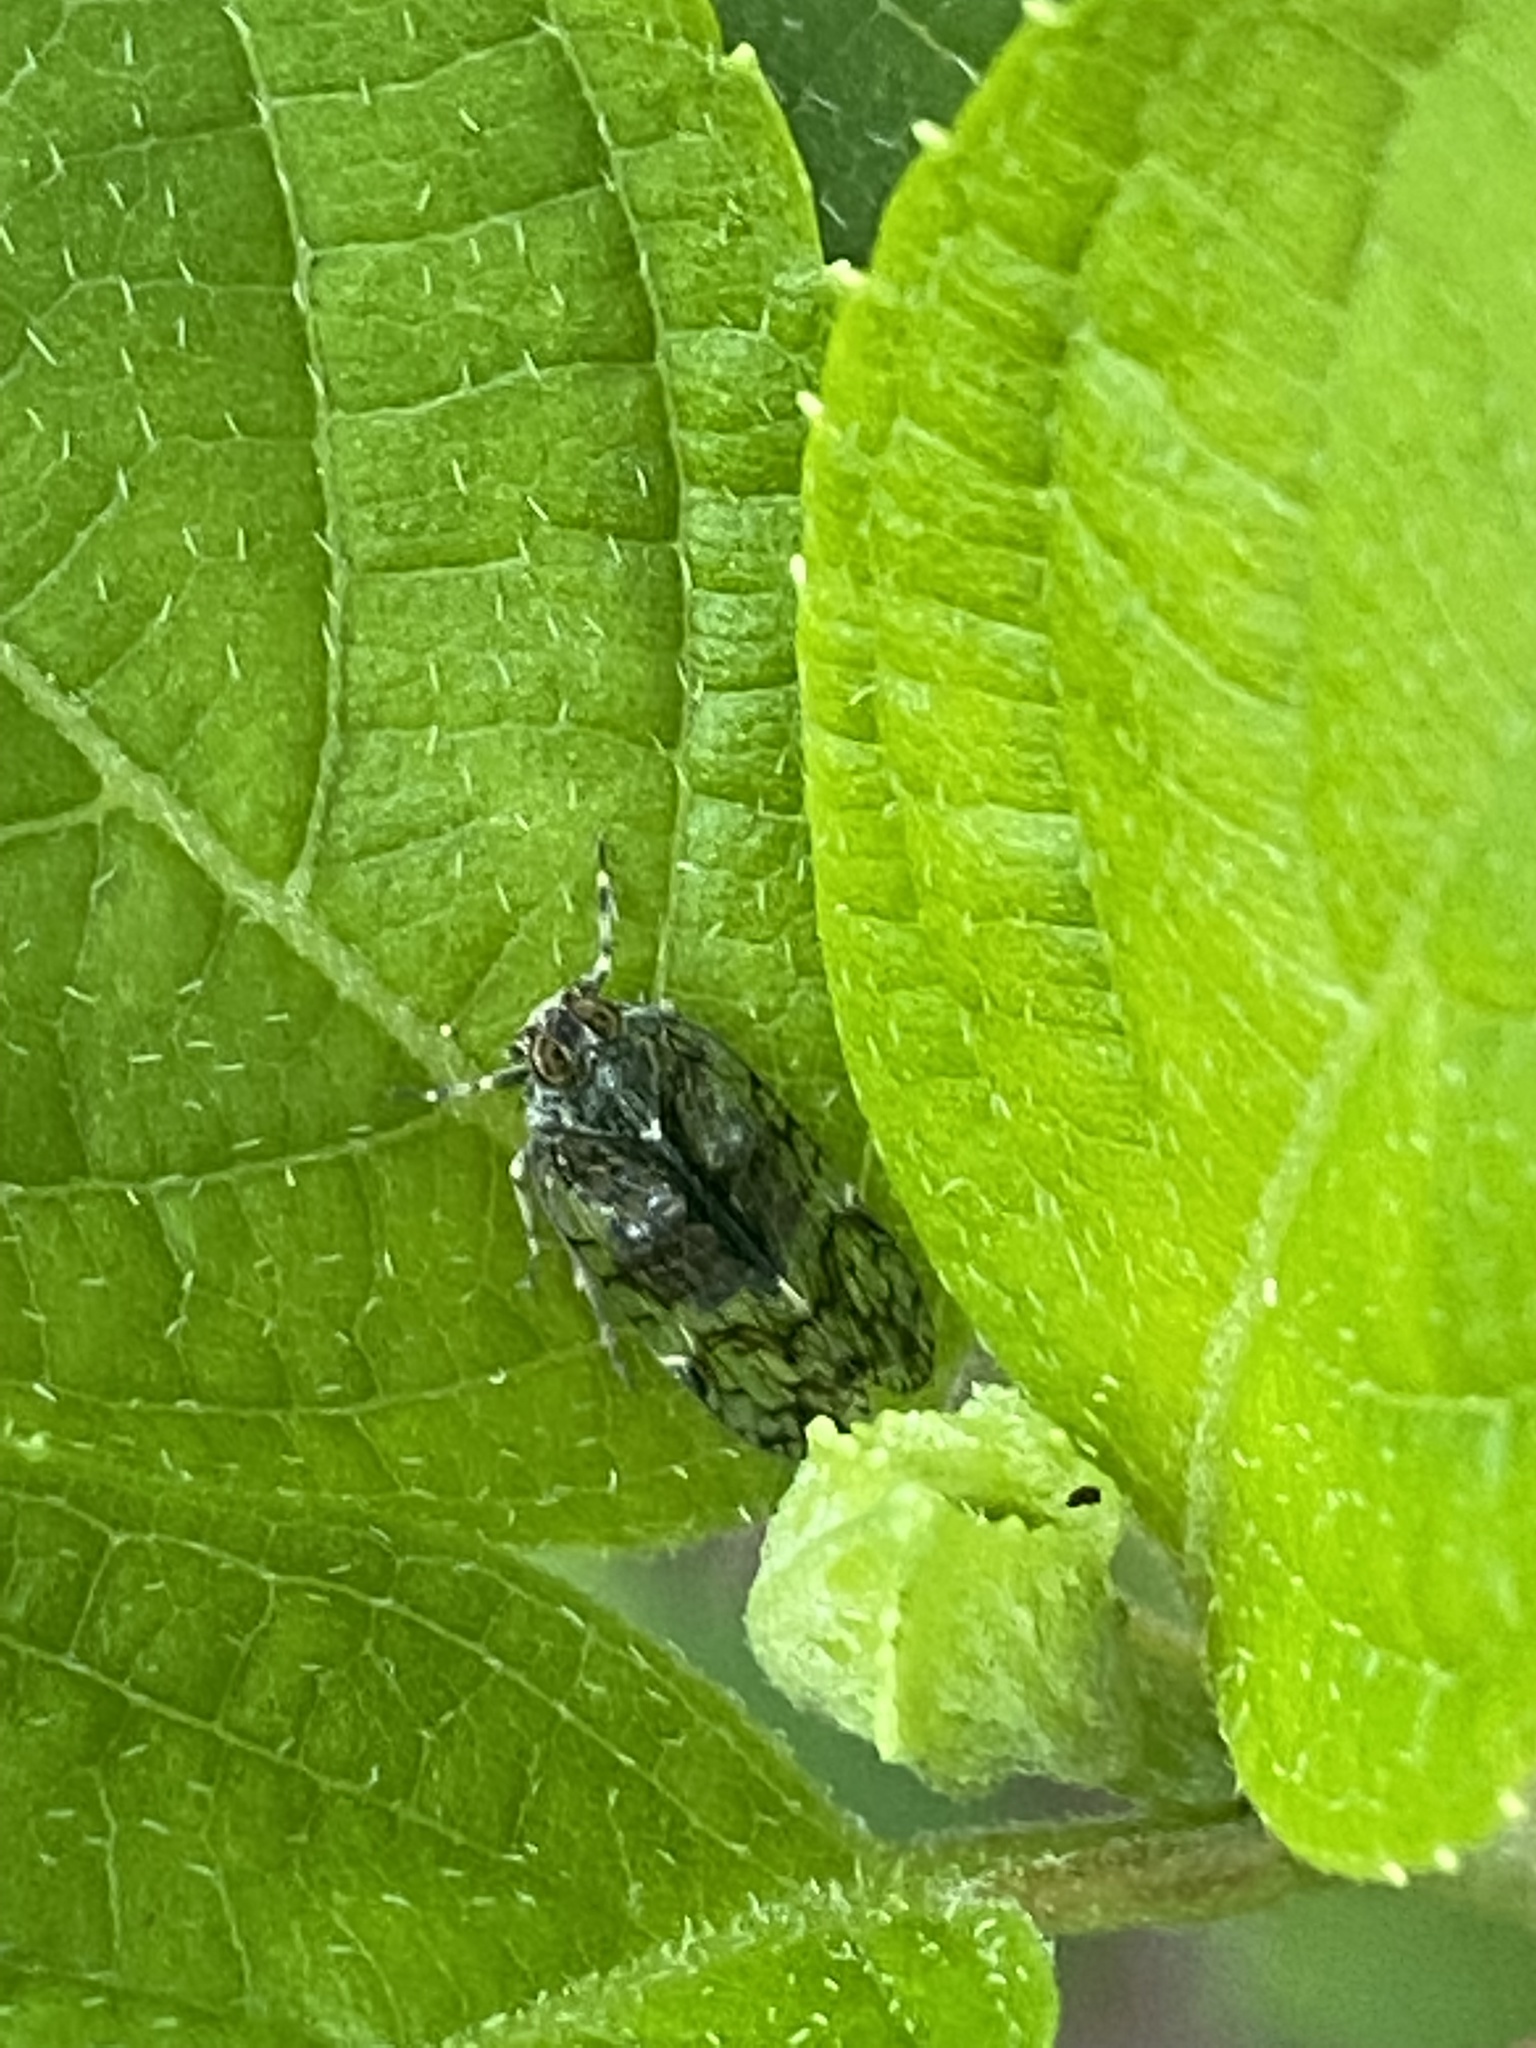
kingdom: Animalia
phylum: Arthropoda
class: Insecta
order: Hemiptera
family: Cixiidae
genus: Melanoliarus
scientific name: Melanoliarus placitus
